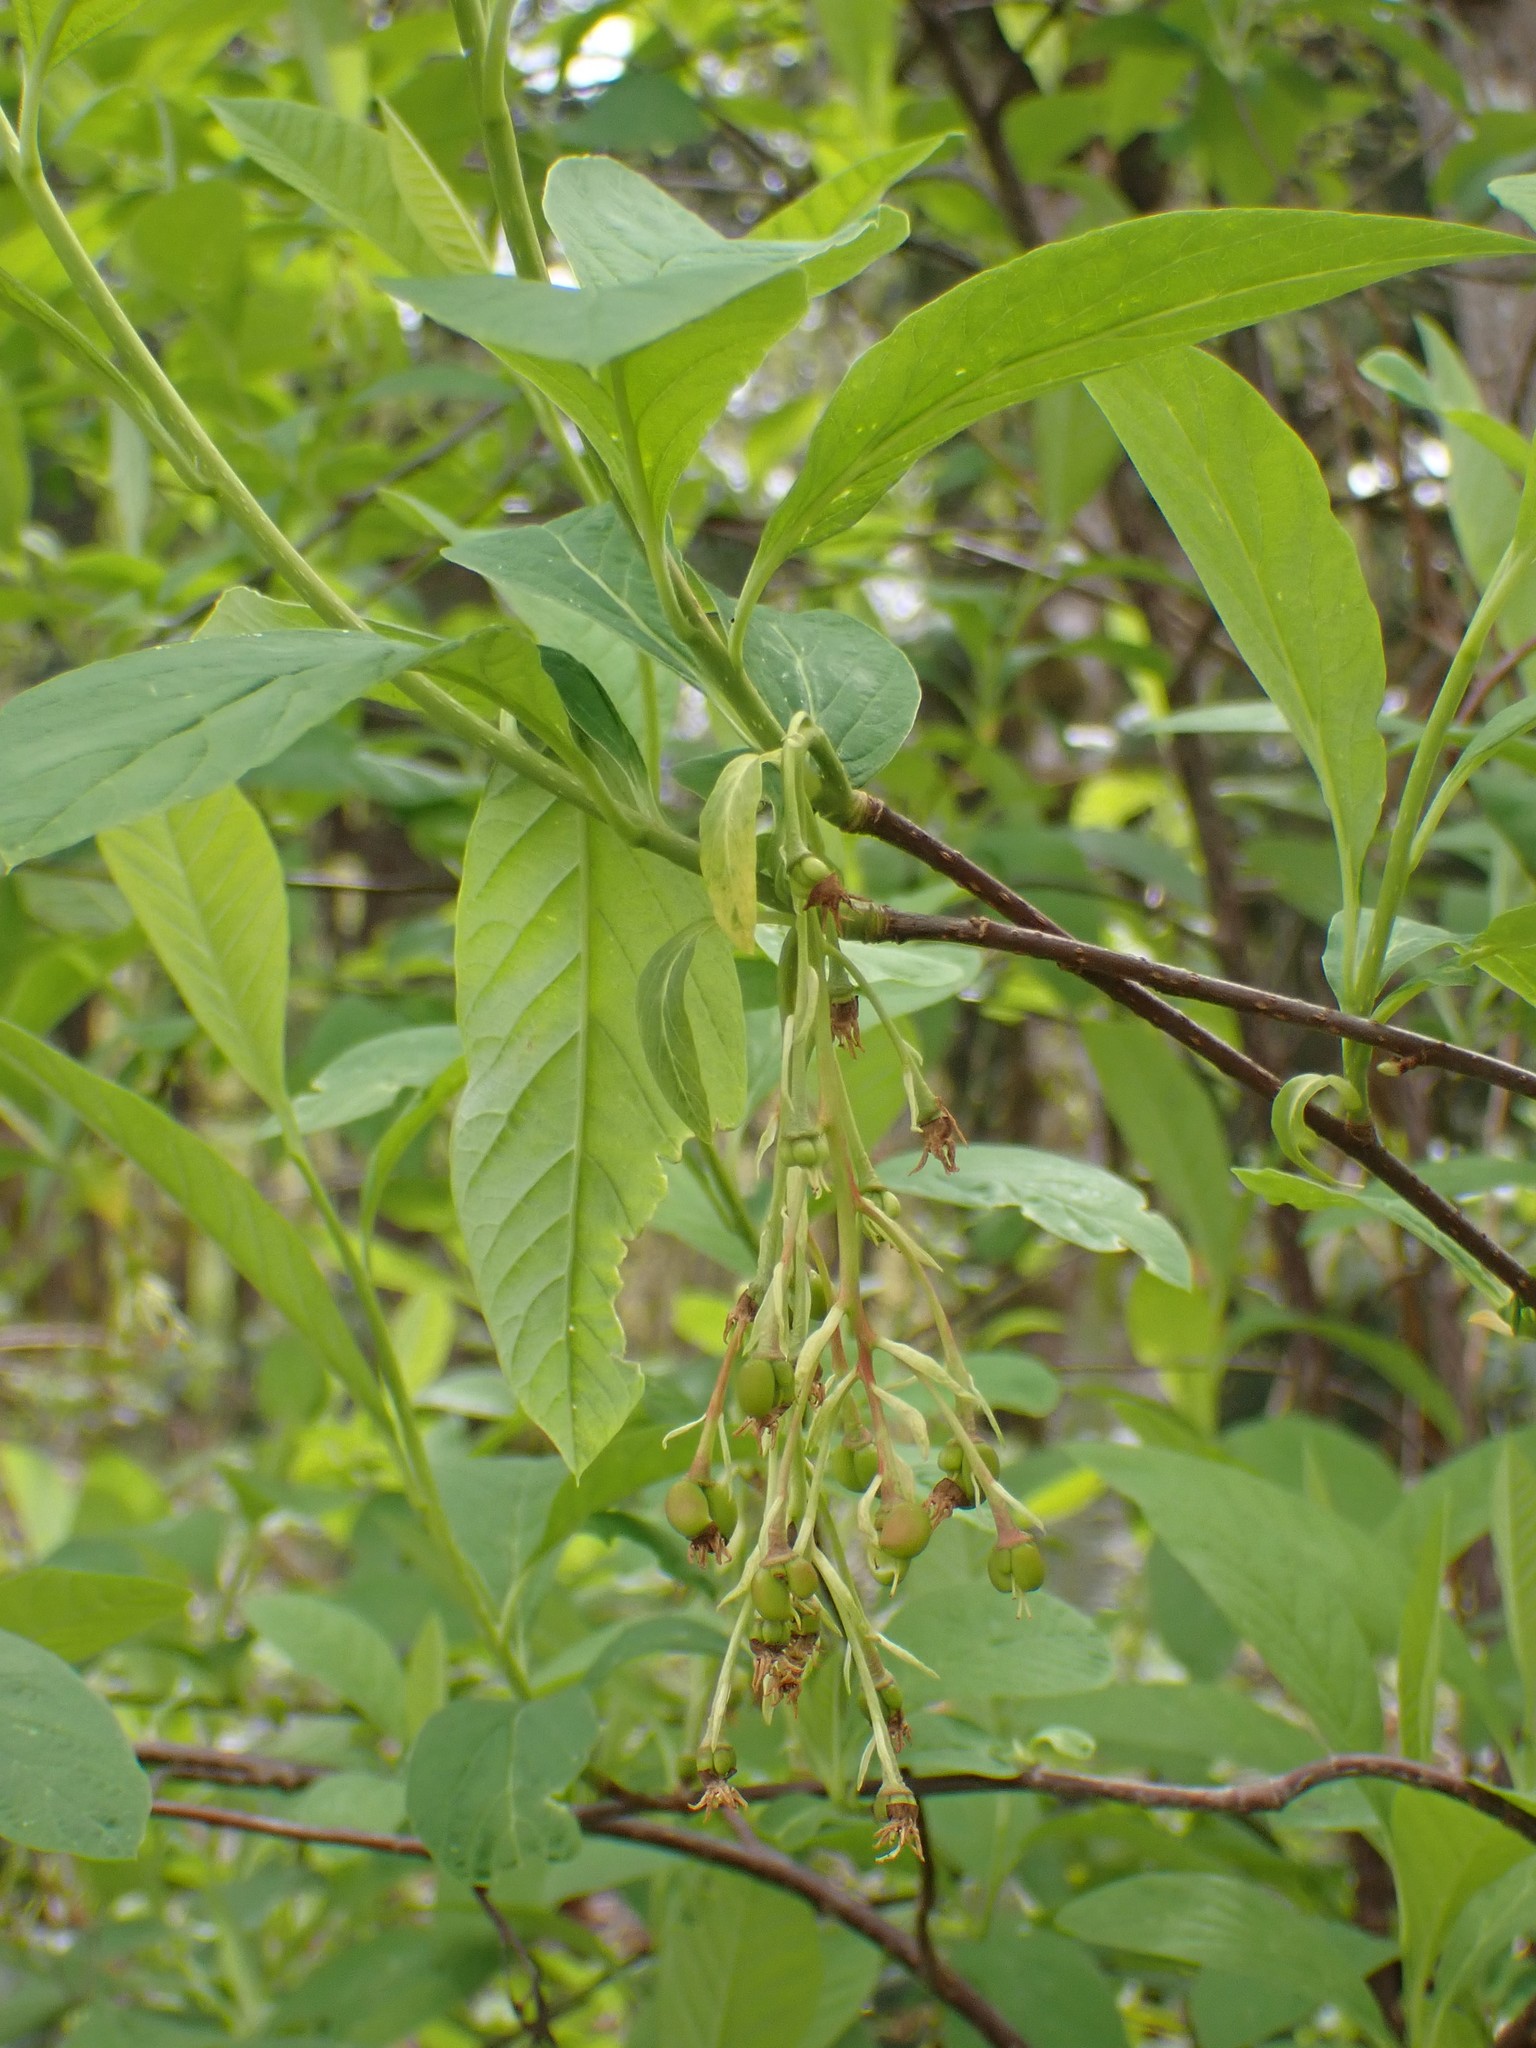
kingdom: Plantae
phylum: Tracheophyta
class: Magnoliopsida
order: Rosales
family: Rosaceae
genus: Oemleria
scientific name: Oemleria cerasiformis
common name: Osoberry
